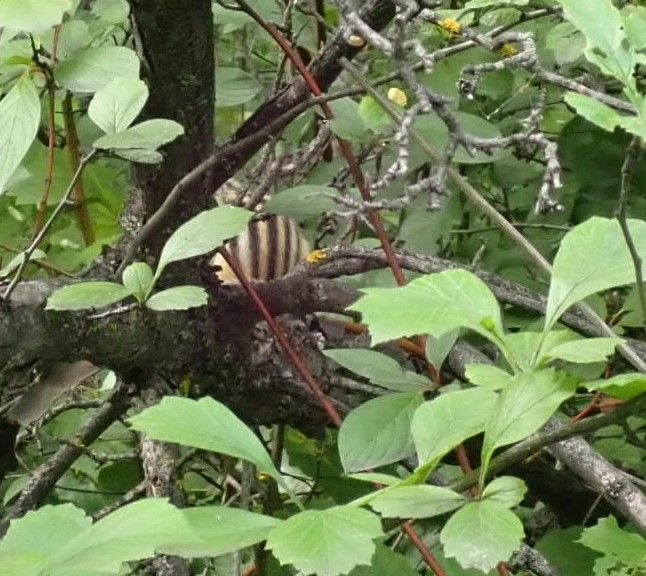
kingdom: Animalia
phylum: Chordata
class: Mammalia
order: Rodentia
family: Sciuridae
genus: Tamias
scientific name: Tamias sibiricus
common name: Siberian chipmunk
